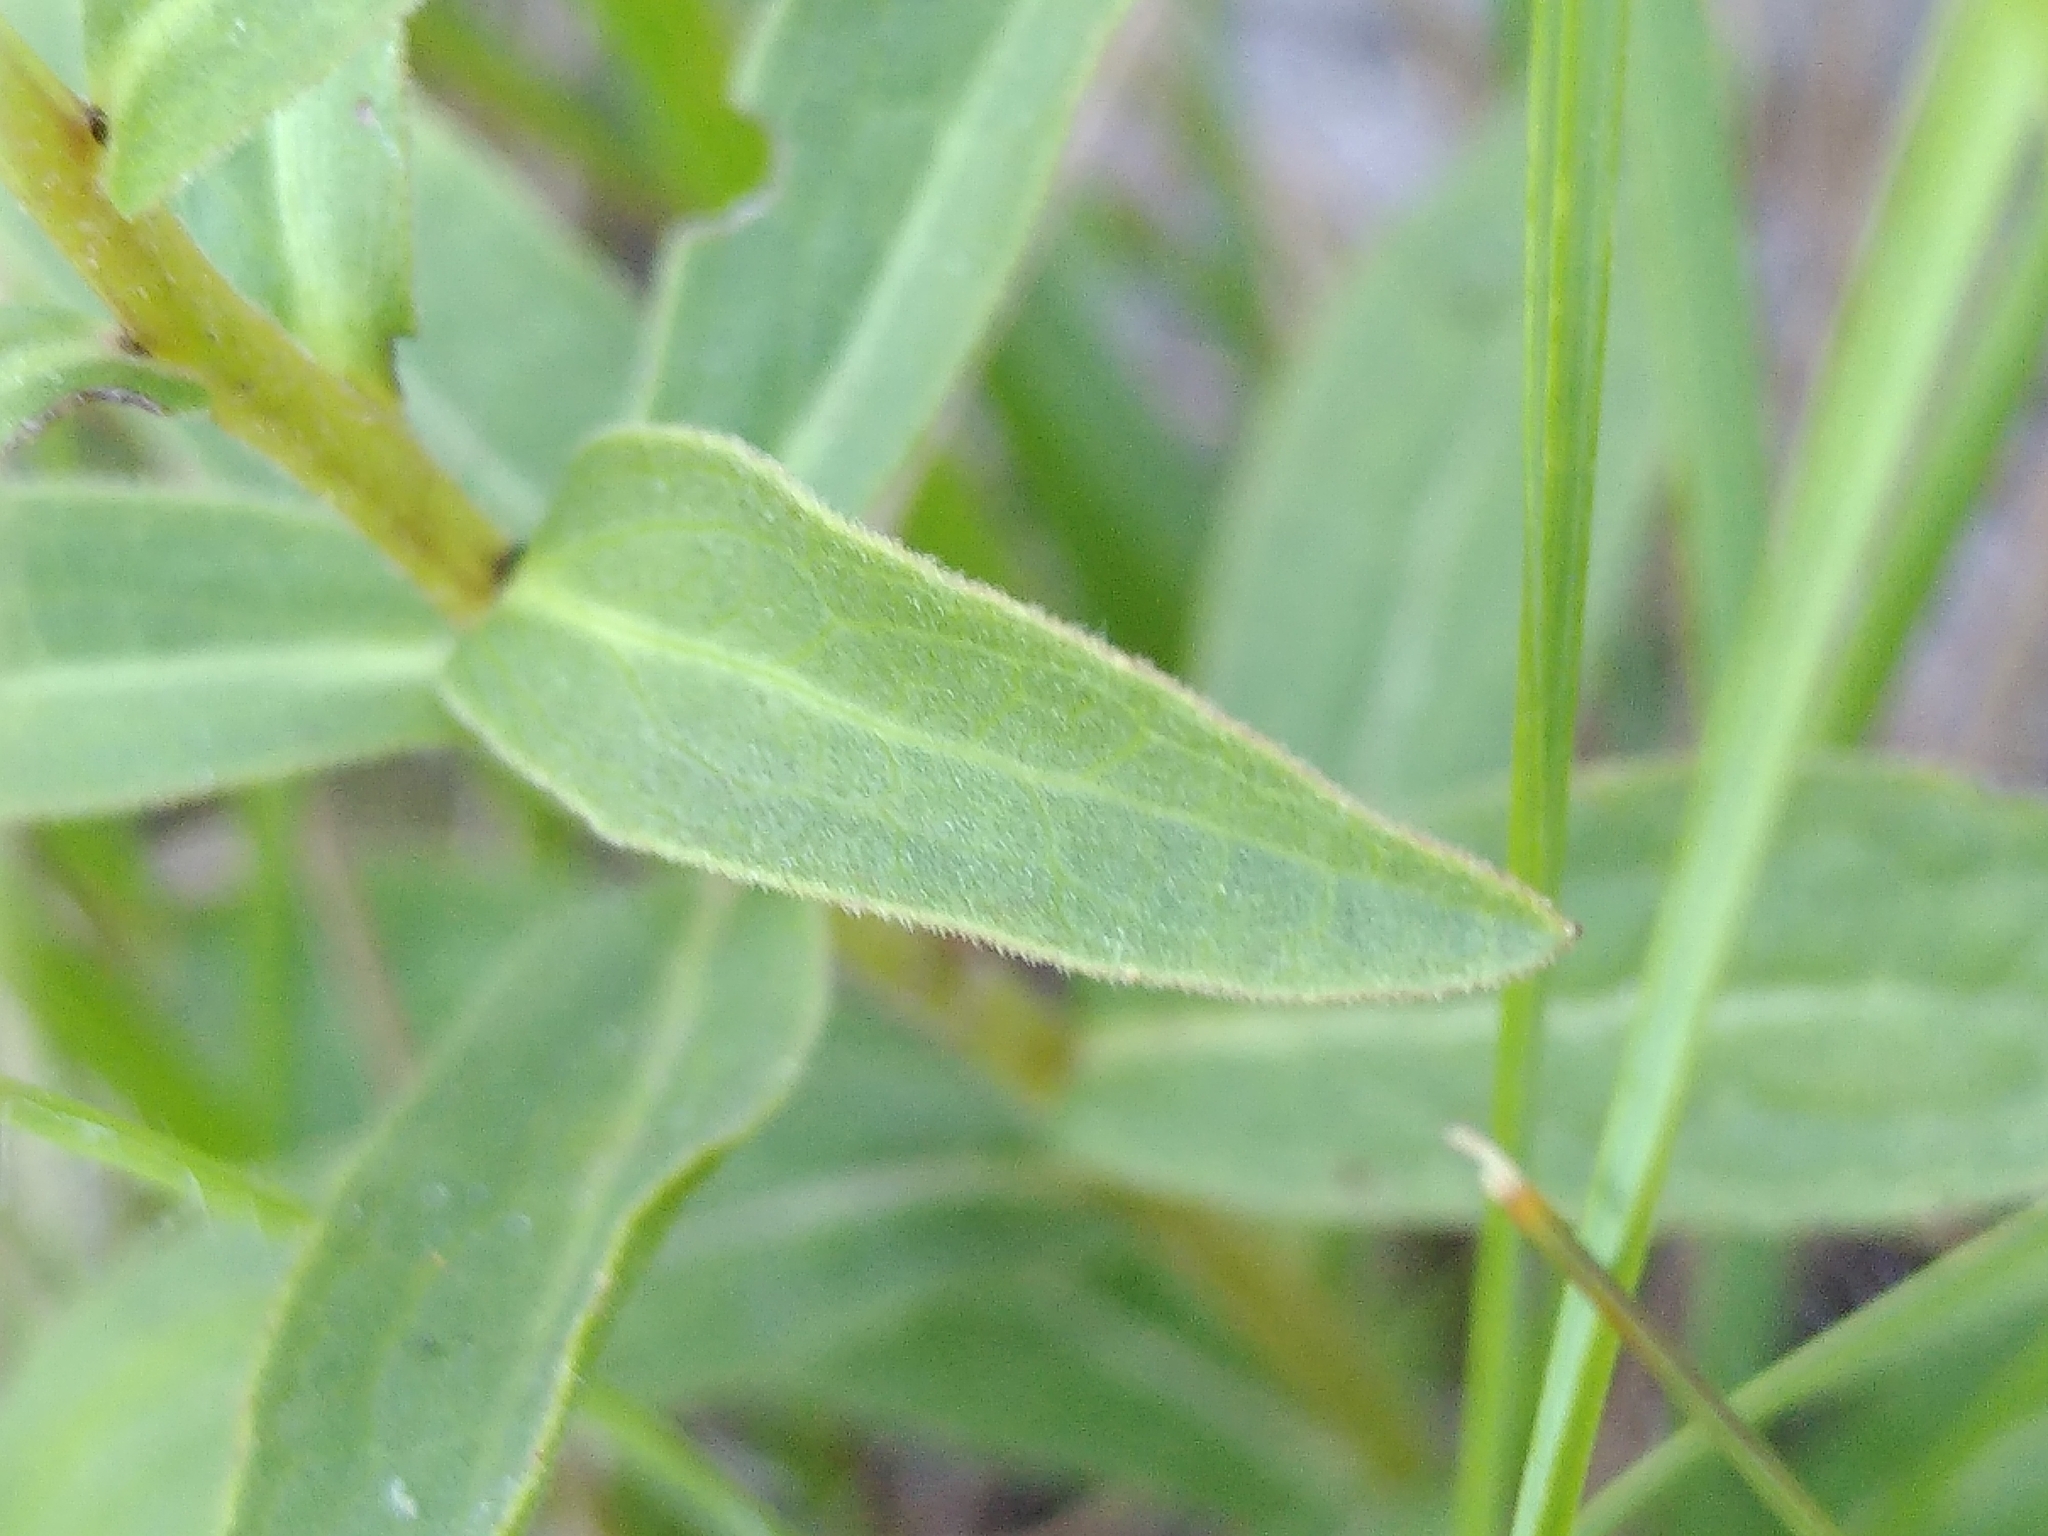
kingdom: Plantae
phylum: Tracheophyta
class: Magnoliopsida
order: Asterales
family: Asteraceae
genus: Pentanema
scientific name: Pentanema salicinum
